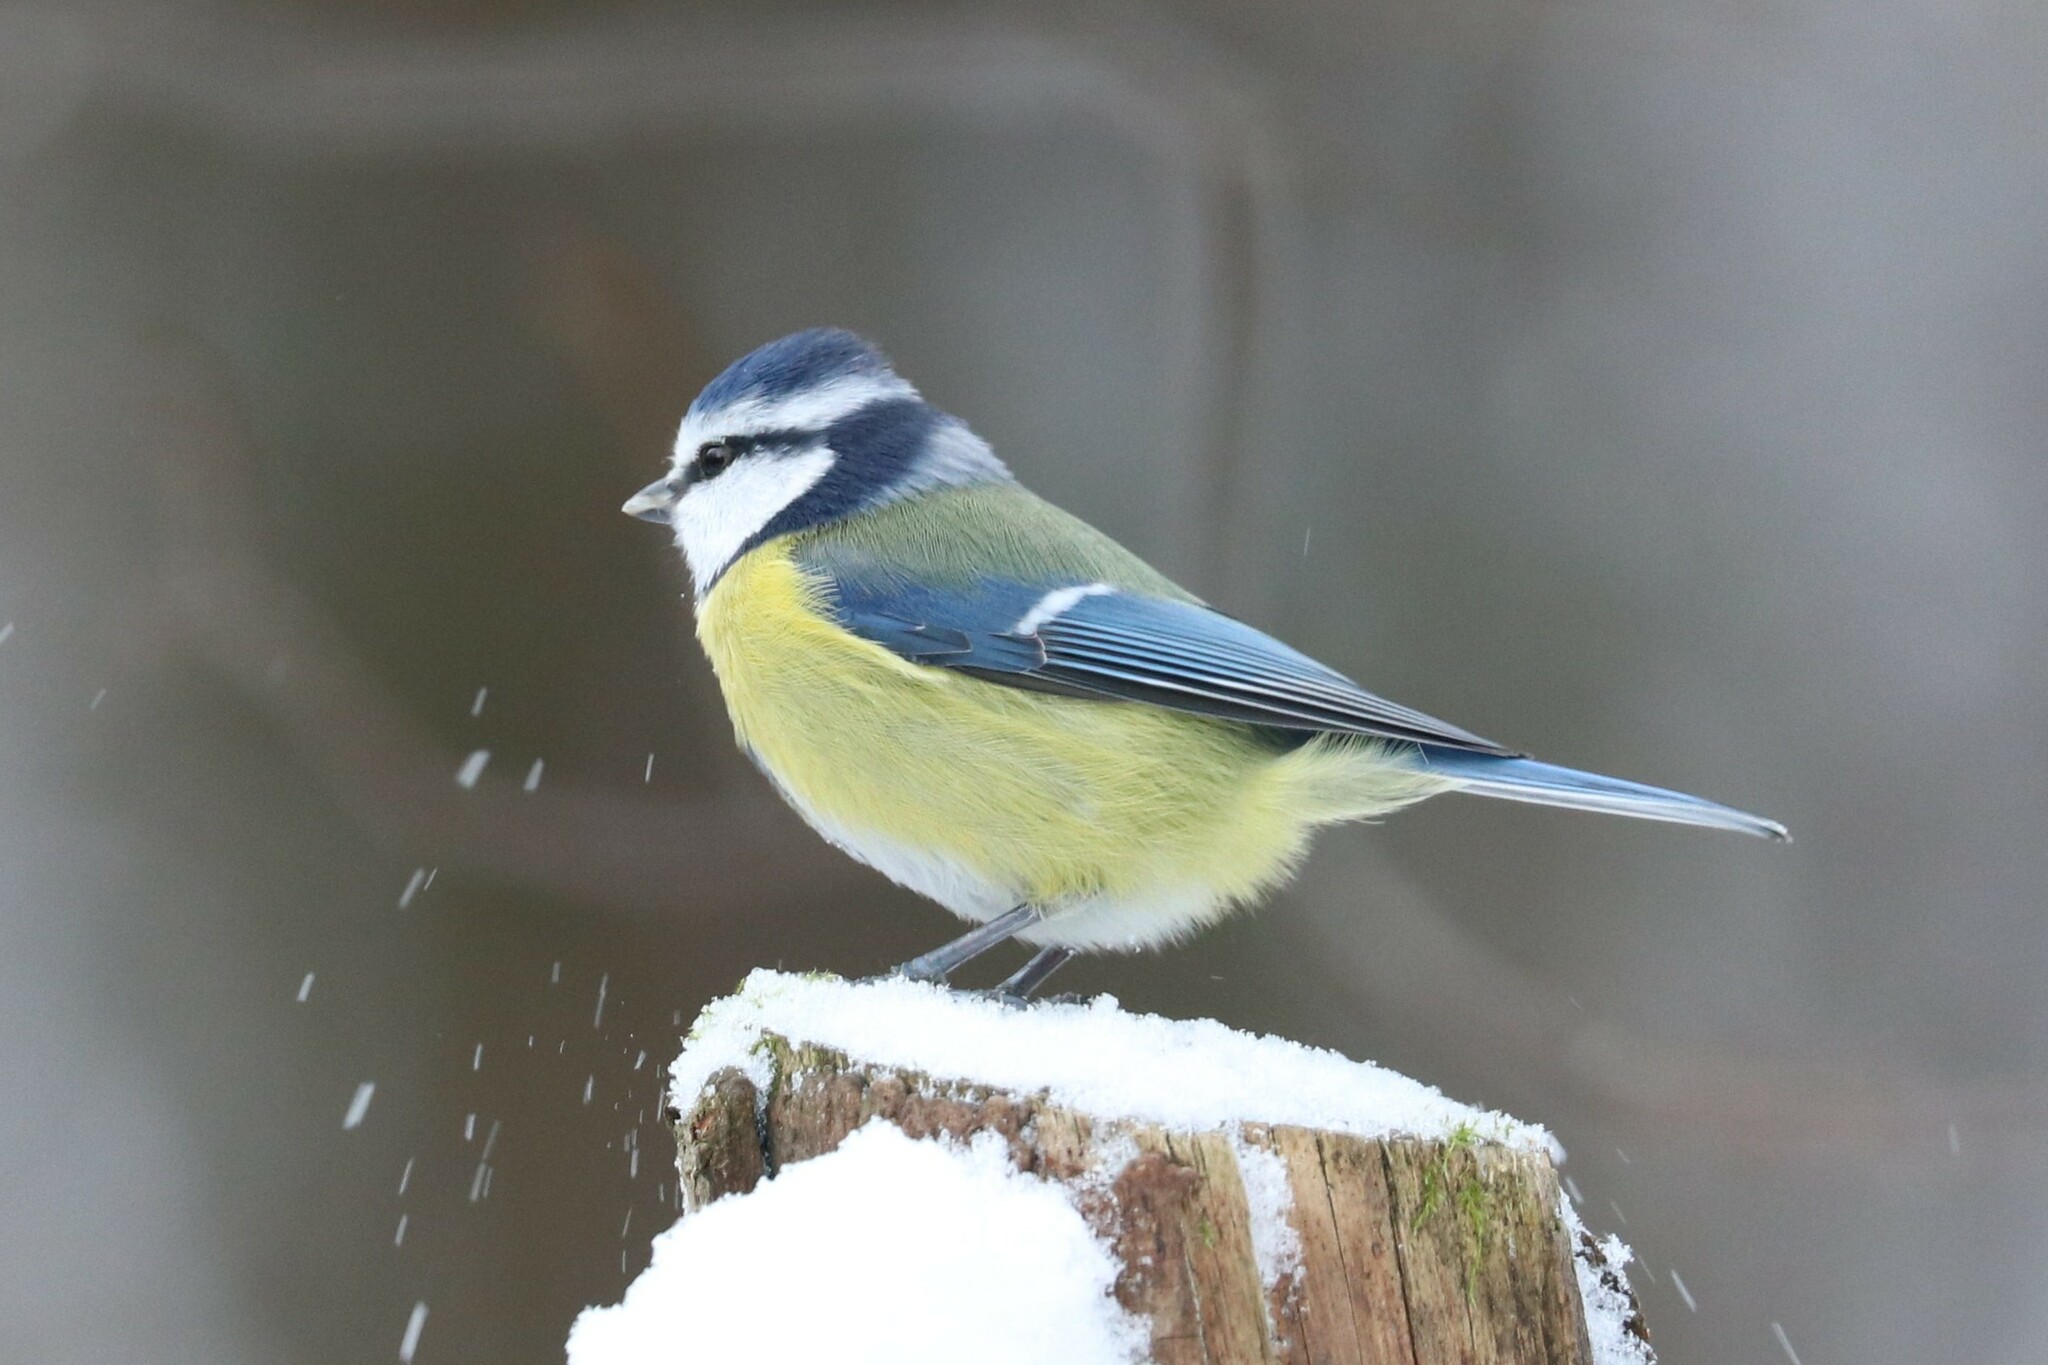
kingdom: Animalia
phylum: Chordata
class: Aves
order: Passeriformes
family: Paridae
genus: Cyanistes
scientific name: Cyanistes caeruleus
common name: Eurasian blue tit
